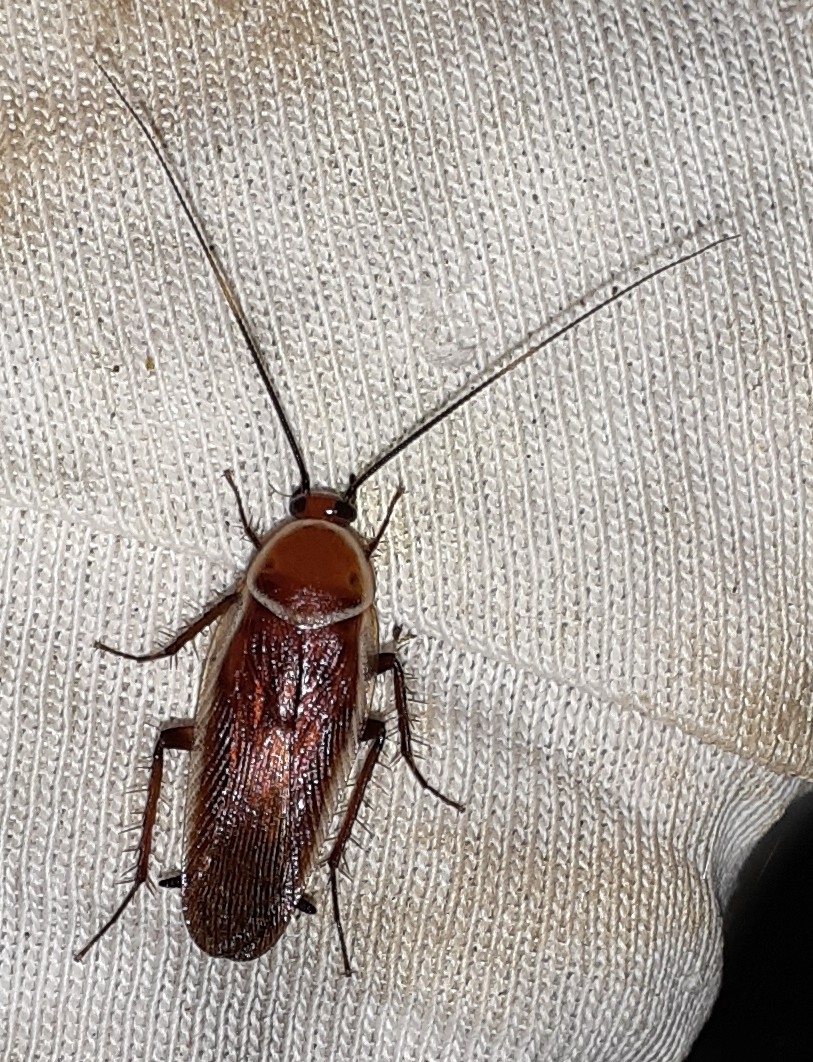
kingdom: Animalia
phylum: Arthropoda
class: Insecta
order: Blattodea
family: Ectobiidae
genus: Pseudomops
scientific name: Pseudomops septentrionalis
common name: Pale-bordered field cockroach
